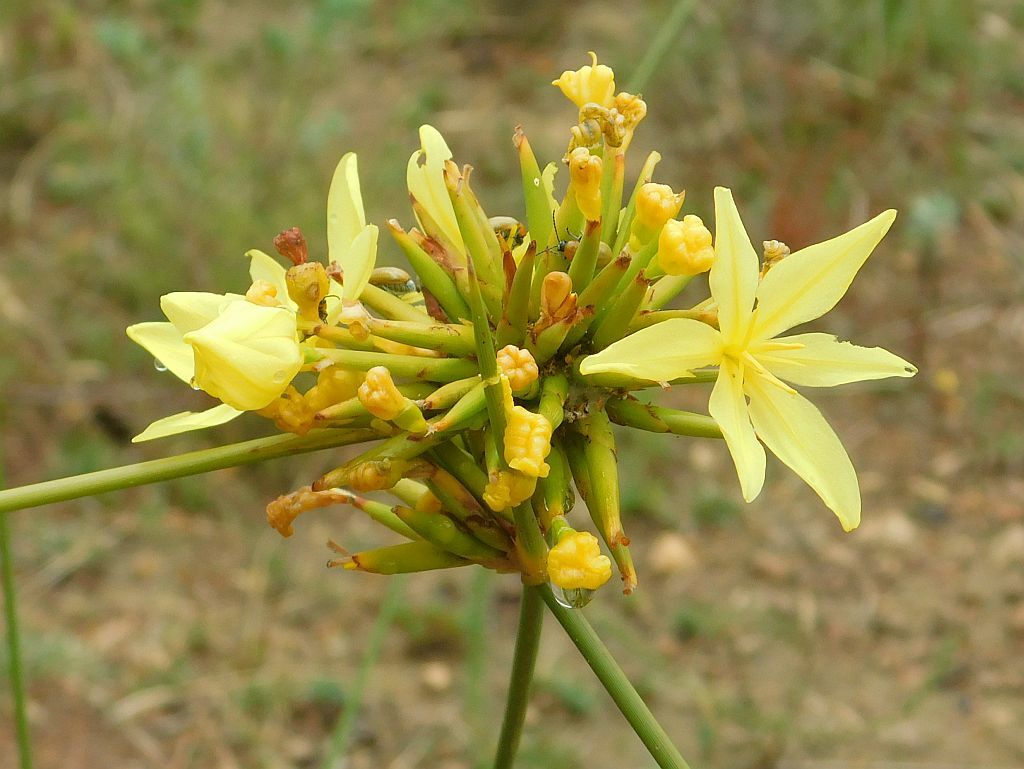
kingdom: Plantae
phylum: Tracheophyta
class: Liliopsida
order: Asparagales
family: Iridaceae
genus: Bobartia
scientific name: Bobartia indica
